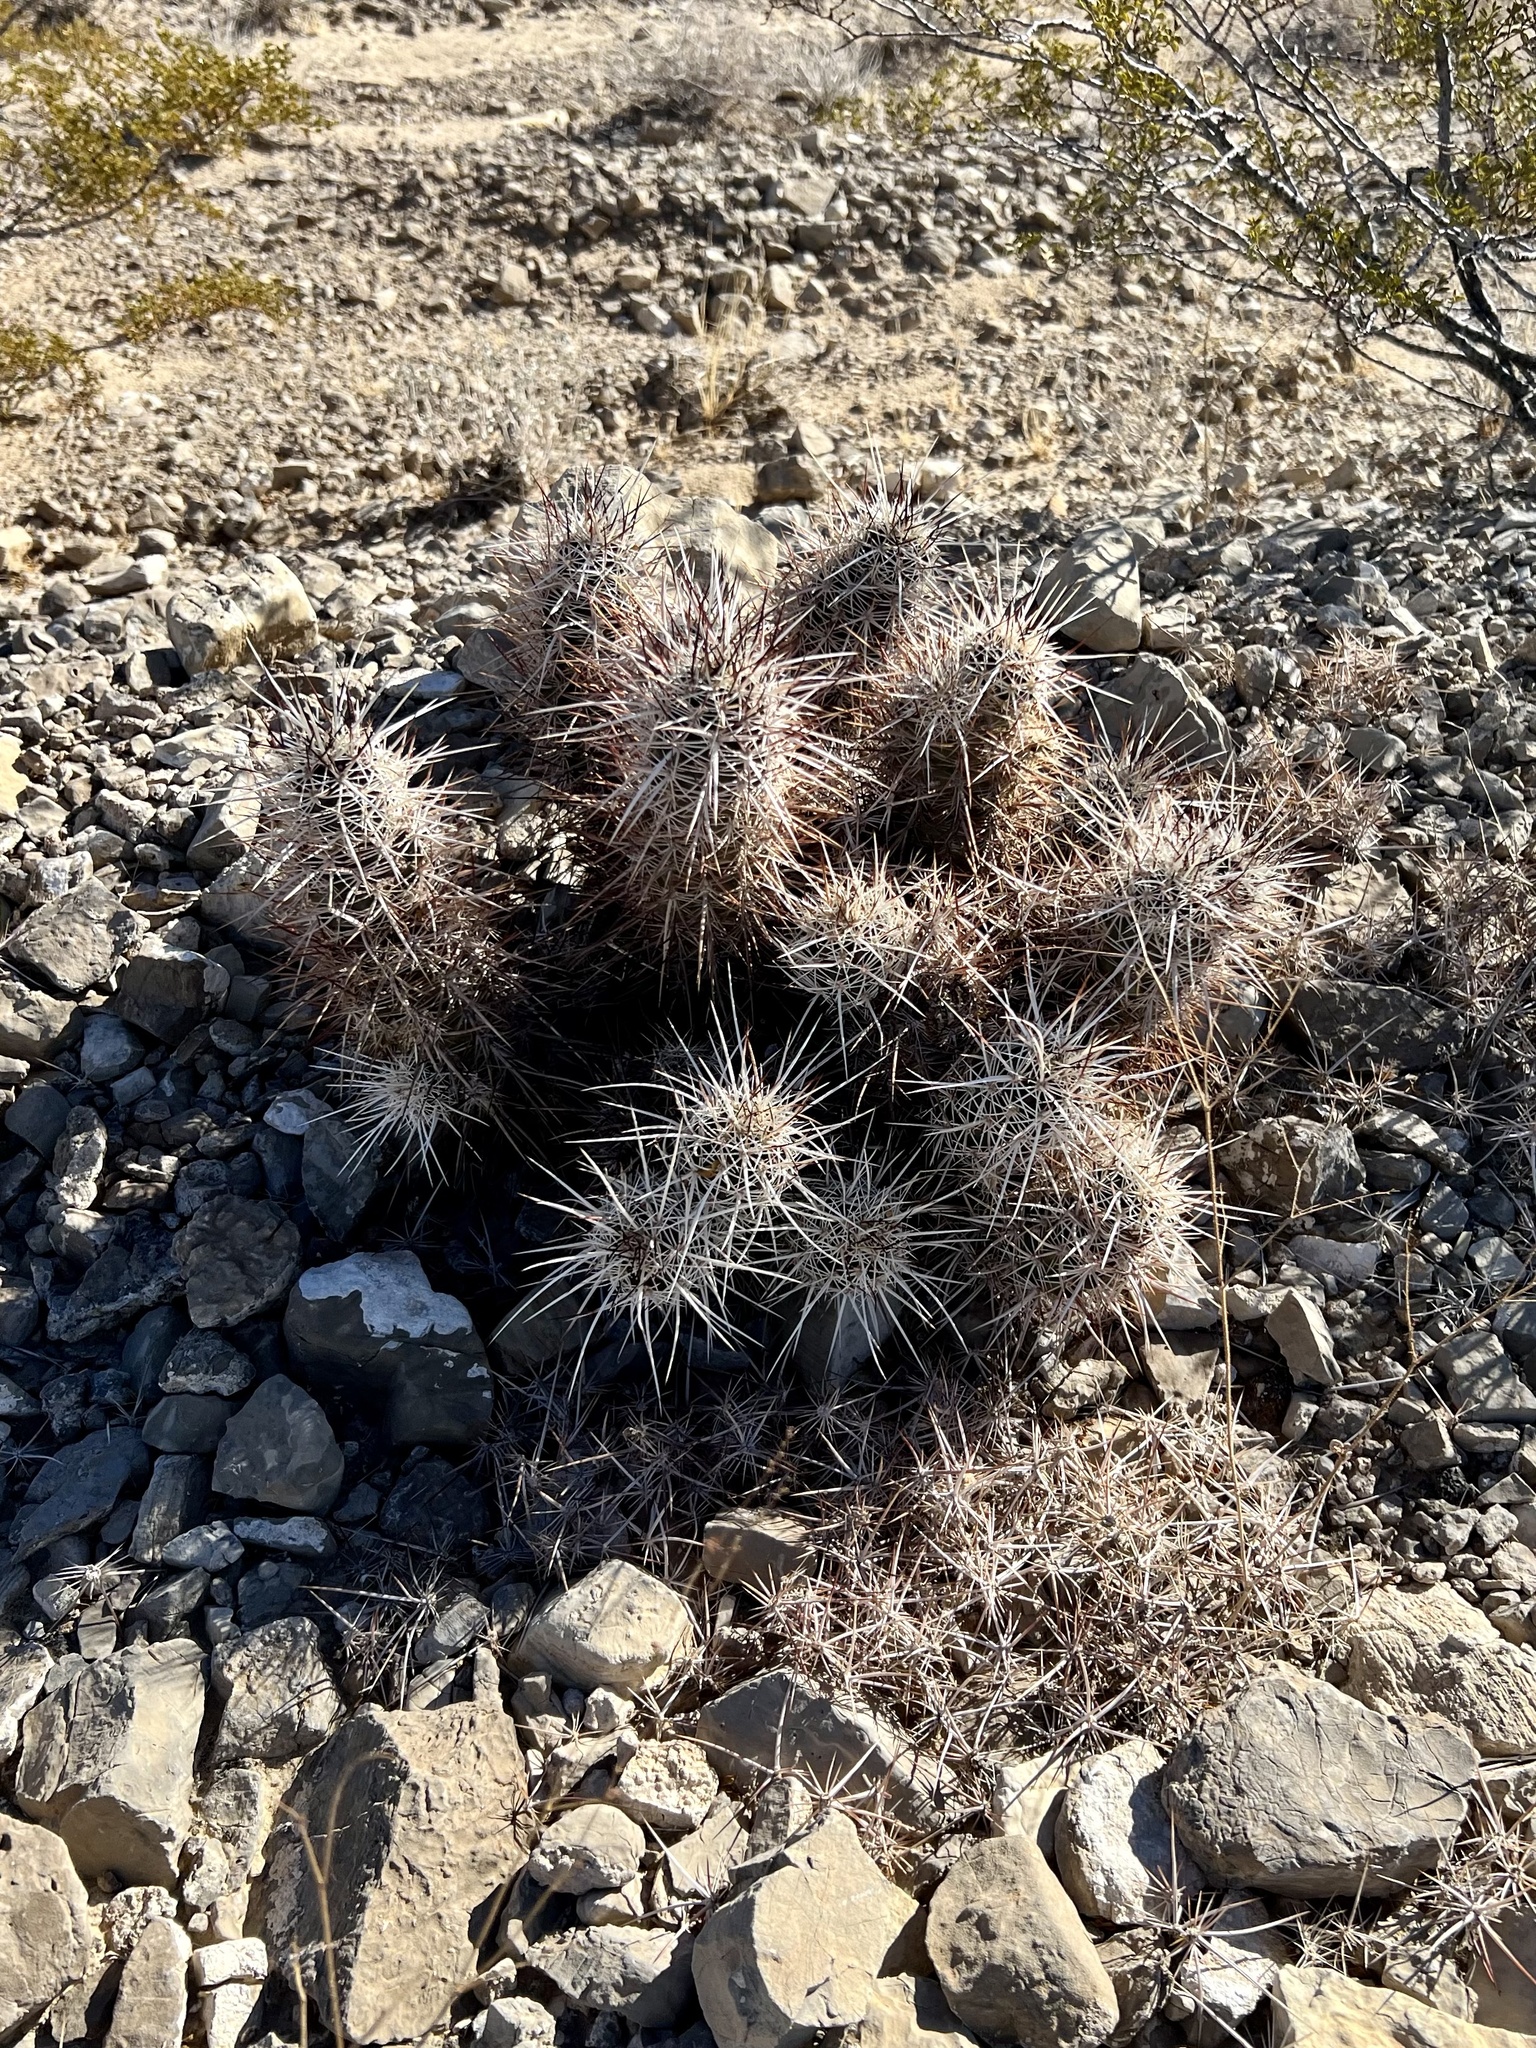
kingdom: Plantae
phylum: Tracheophyta
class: Magnoliopsida
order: Caryophyllales
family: Cactaceae
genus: Echinocereus
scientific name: Echinocereus engelmannii
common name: Engelmann's hedgehog cactus
